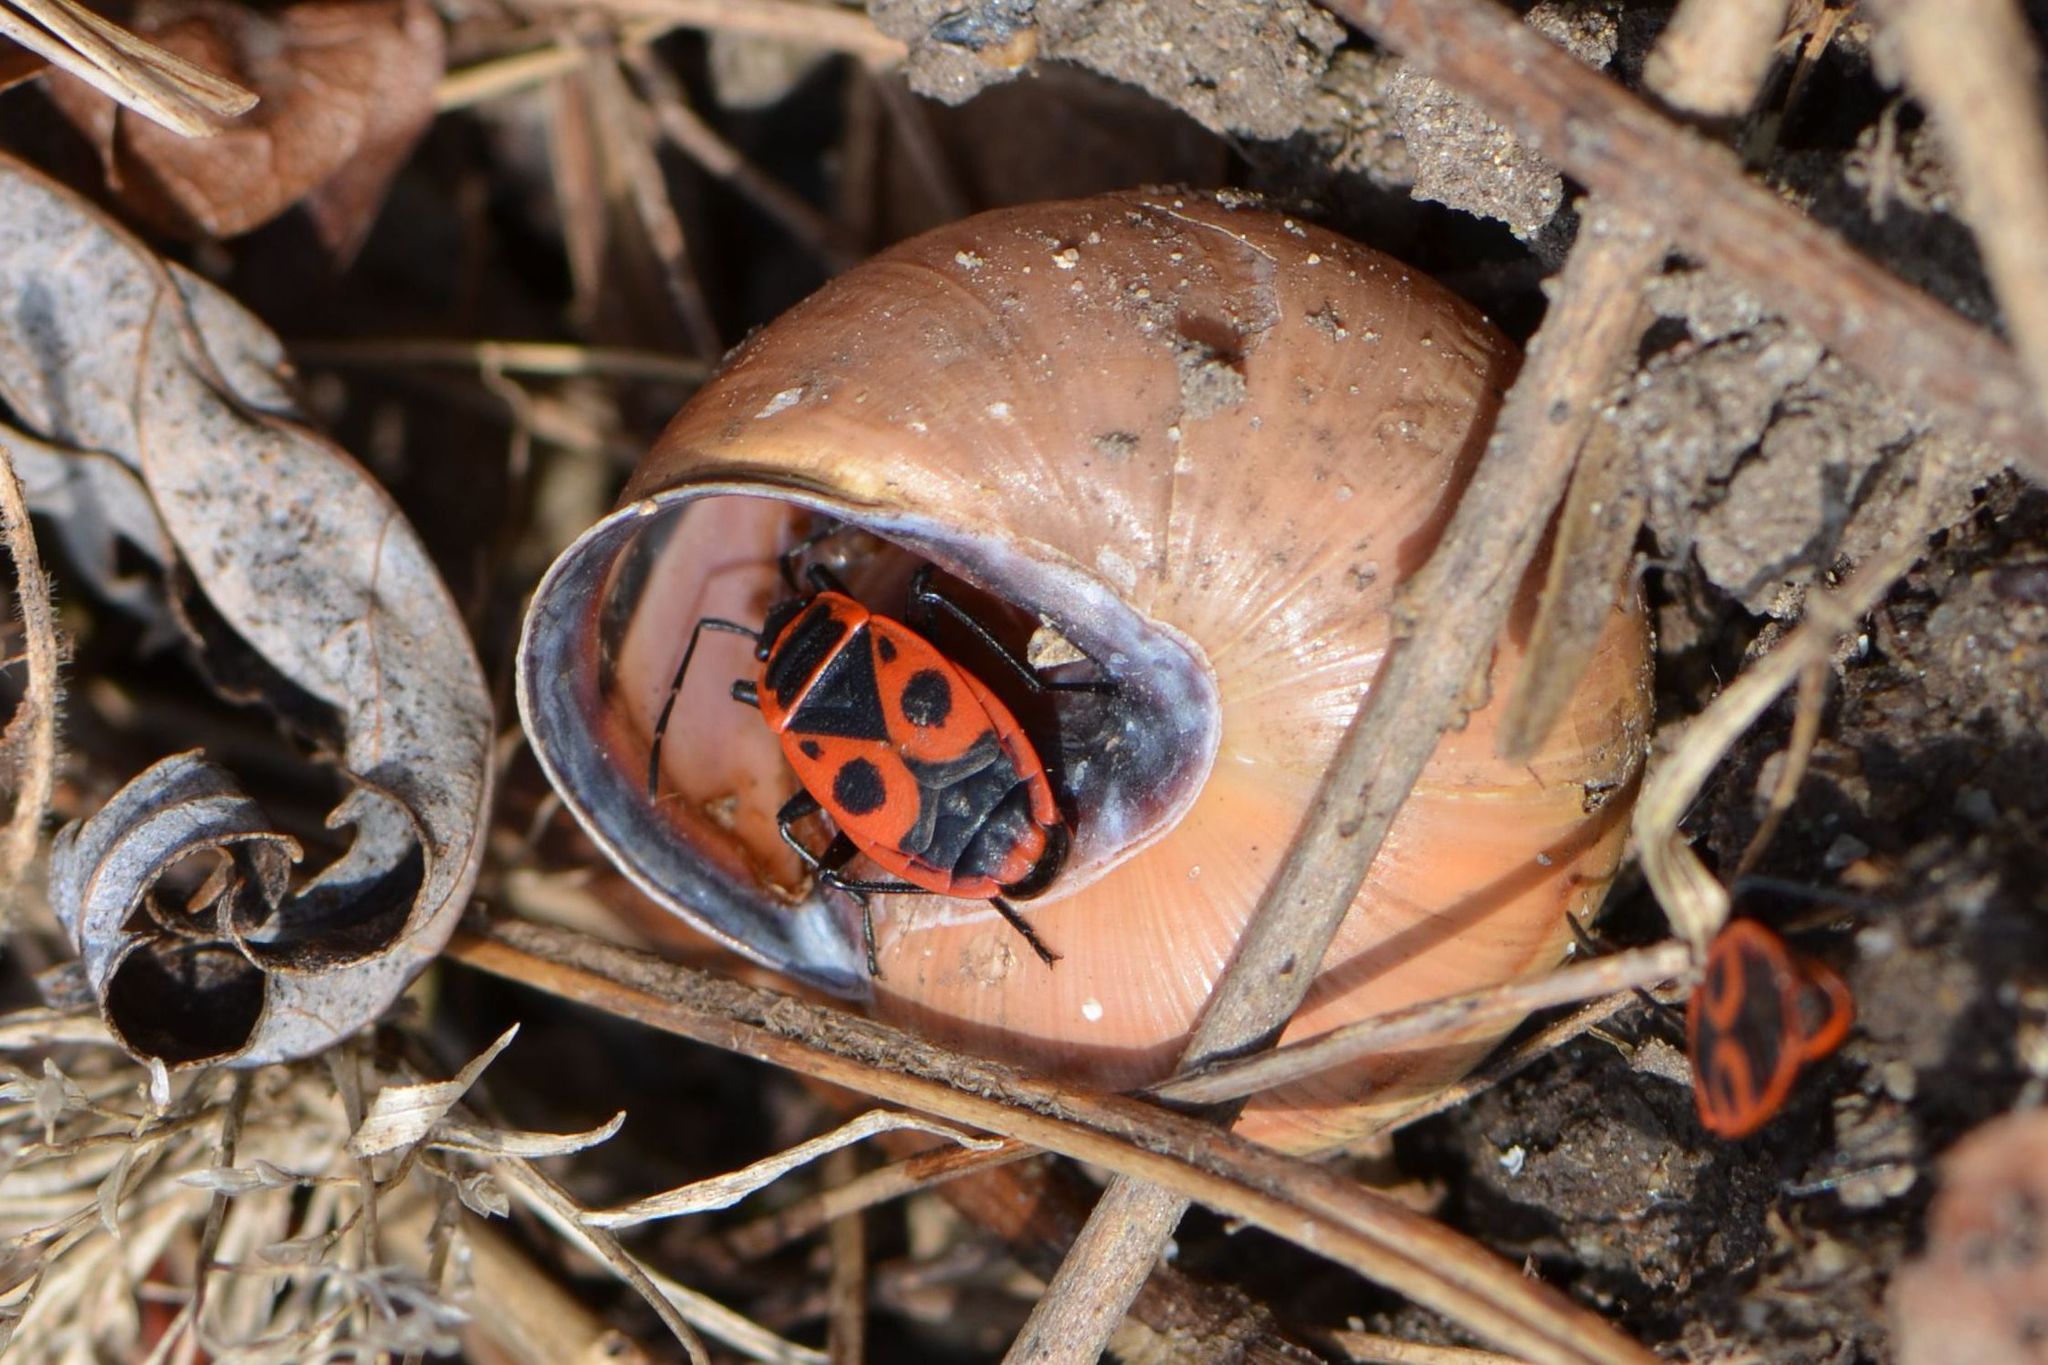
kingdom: Animalia
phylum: Arthropoda
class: Insecta
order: Hemiptera
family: Pyrrhocoridae
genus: Pyrrhocoris
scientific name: Pyrrhocoris apterus
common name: Firebug
